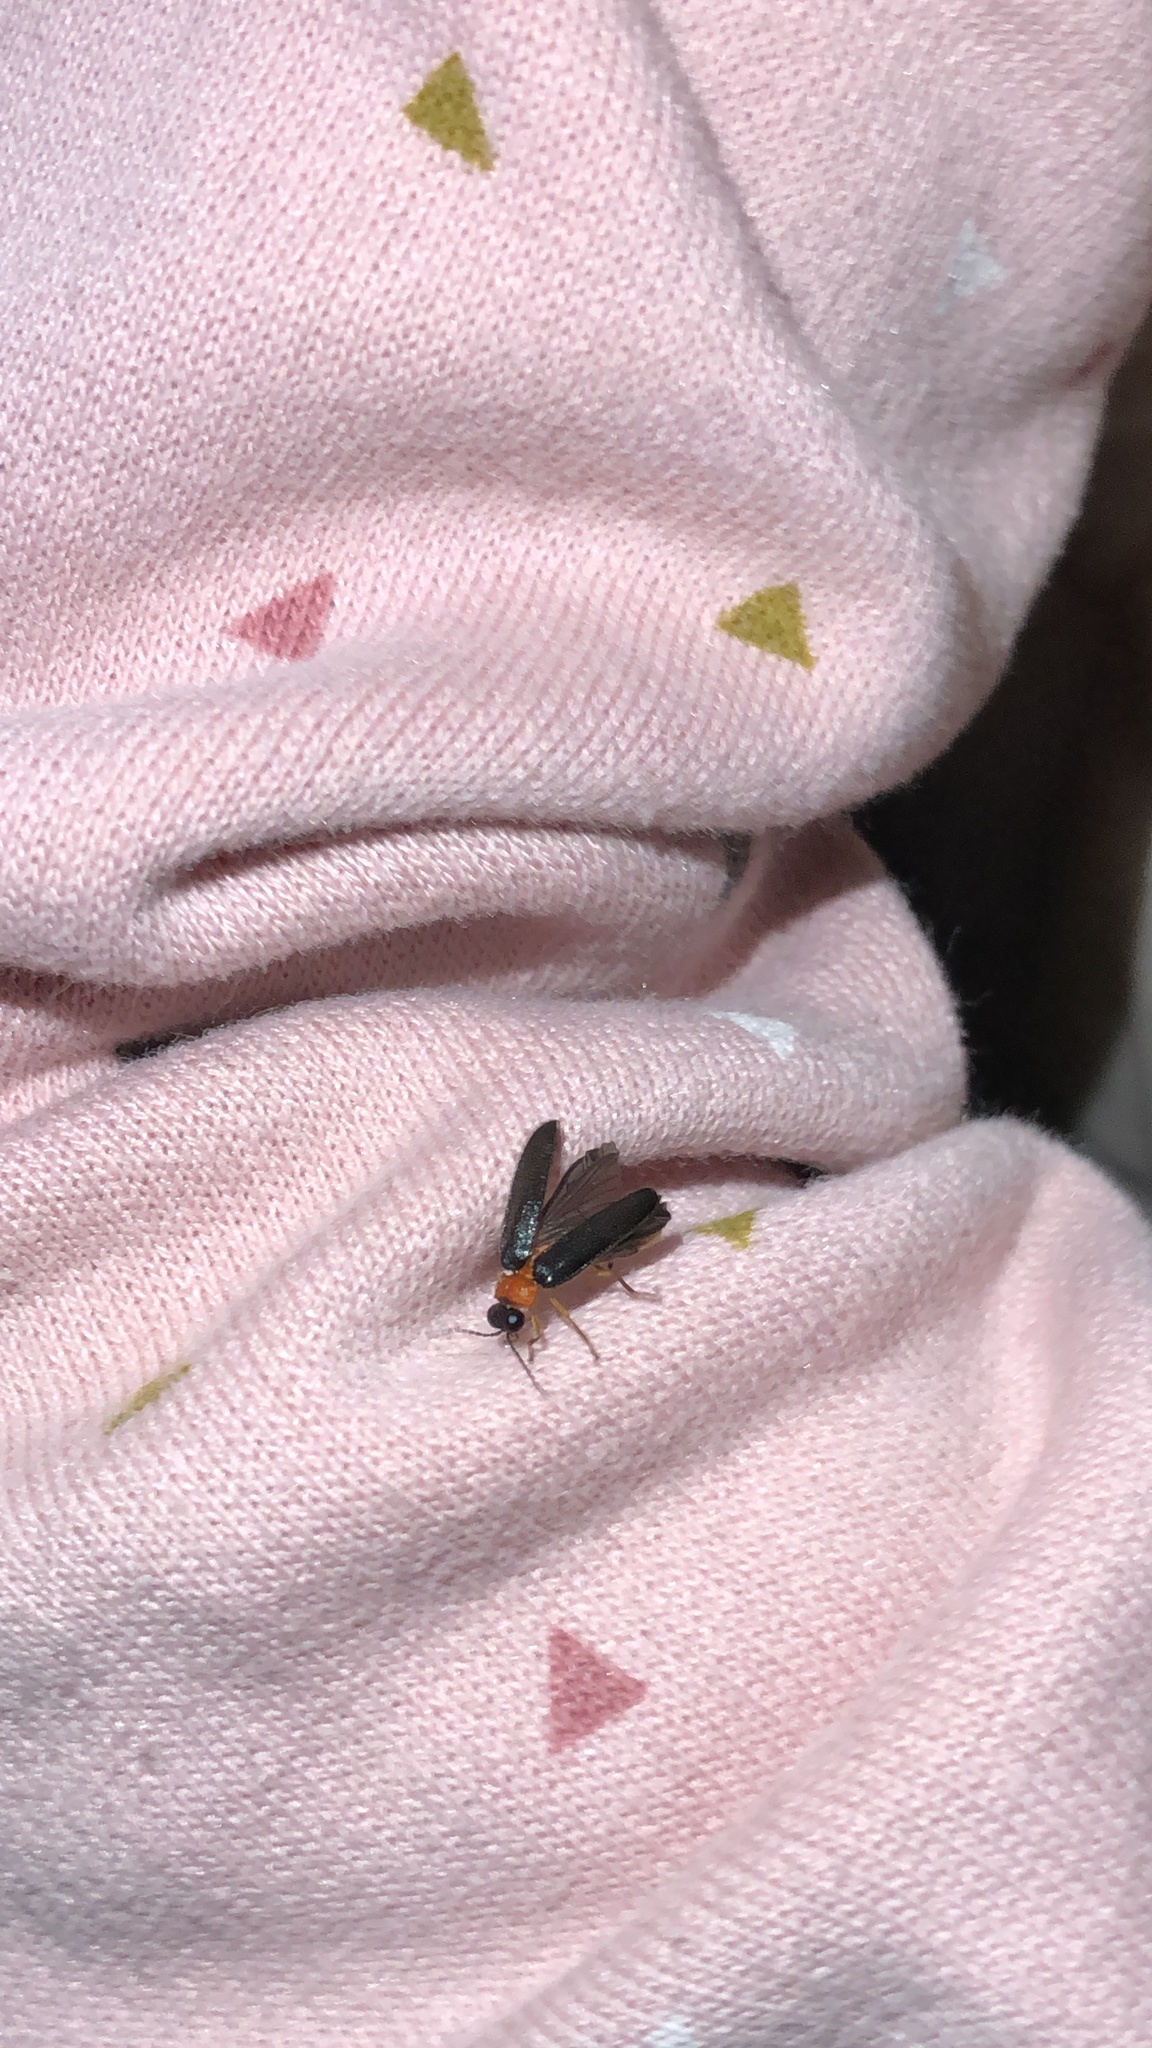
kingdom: Animalia
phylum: Arthropoda
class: Insecta
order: Coleoptera
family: Lampyridae
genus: Luciola
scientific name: Luciola lusitanica
